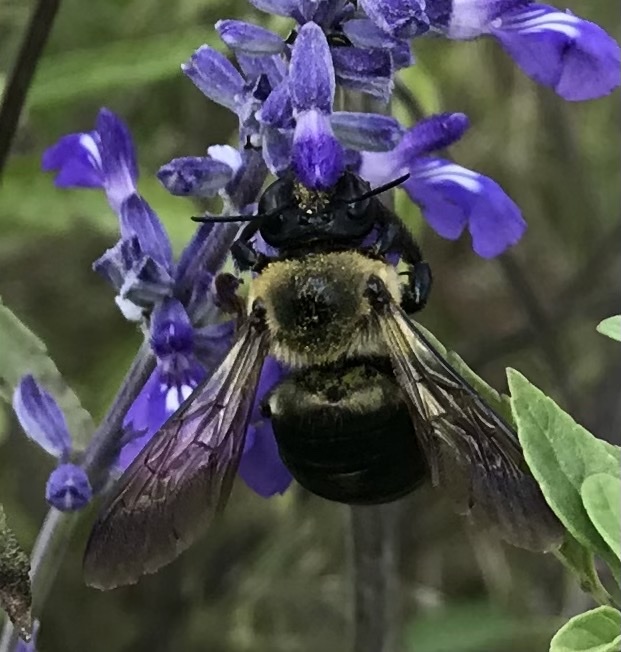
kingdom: Animalia
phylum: Arthropoda
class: Insecta
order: Hymenoptera
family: Apidae
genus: Xylocopa
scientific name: Xylocopa virginica
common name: Carpenter bee
